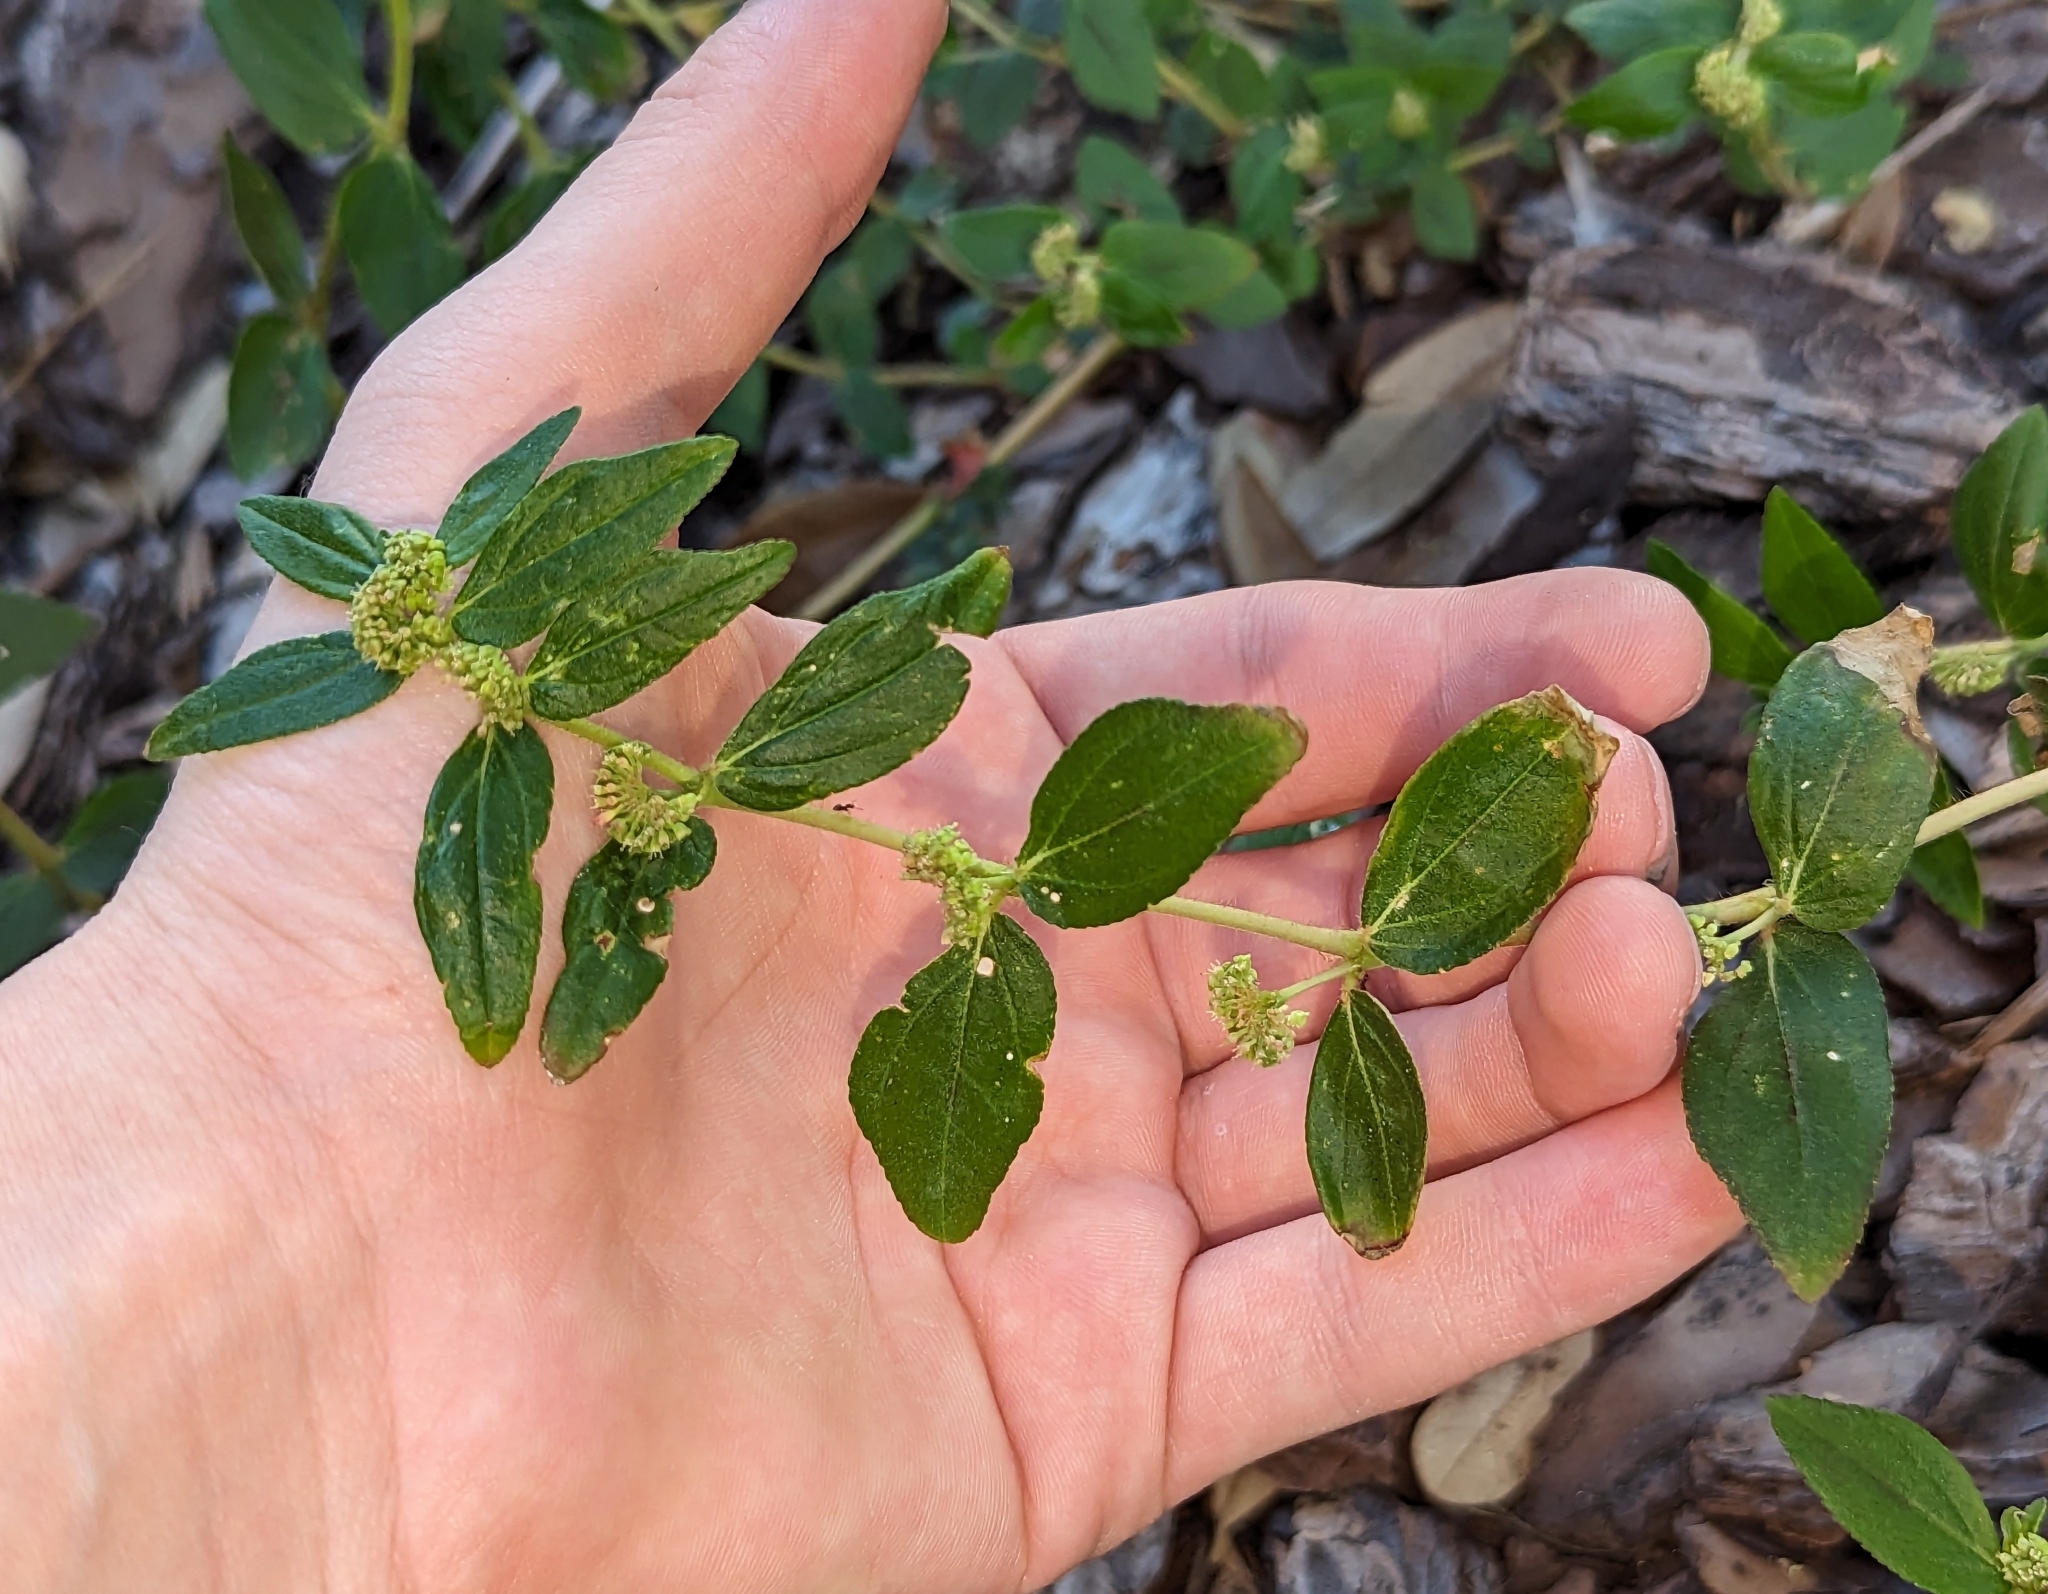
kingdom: Plantae
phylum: Tracheophyta
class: Magnoliopsida
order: Malpighiales
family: Euphorbiaceae
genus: Euphorbia
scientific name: Euphorbia hirta
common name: Pillpod sandmat
